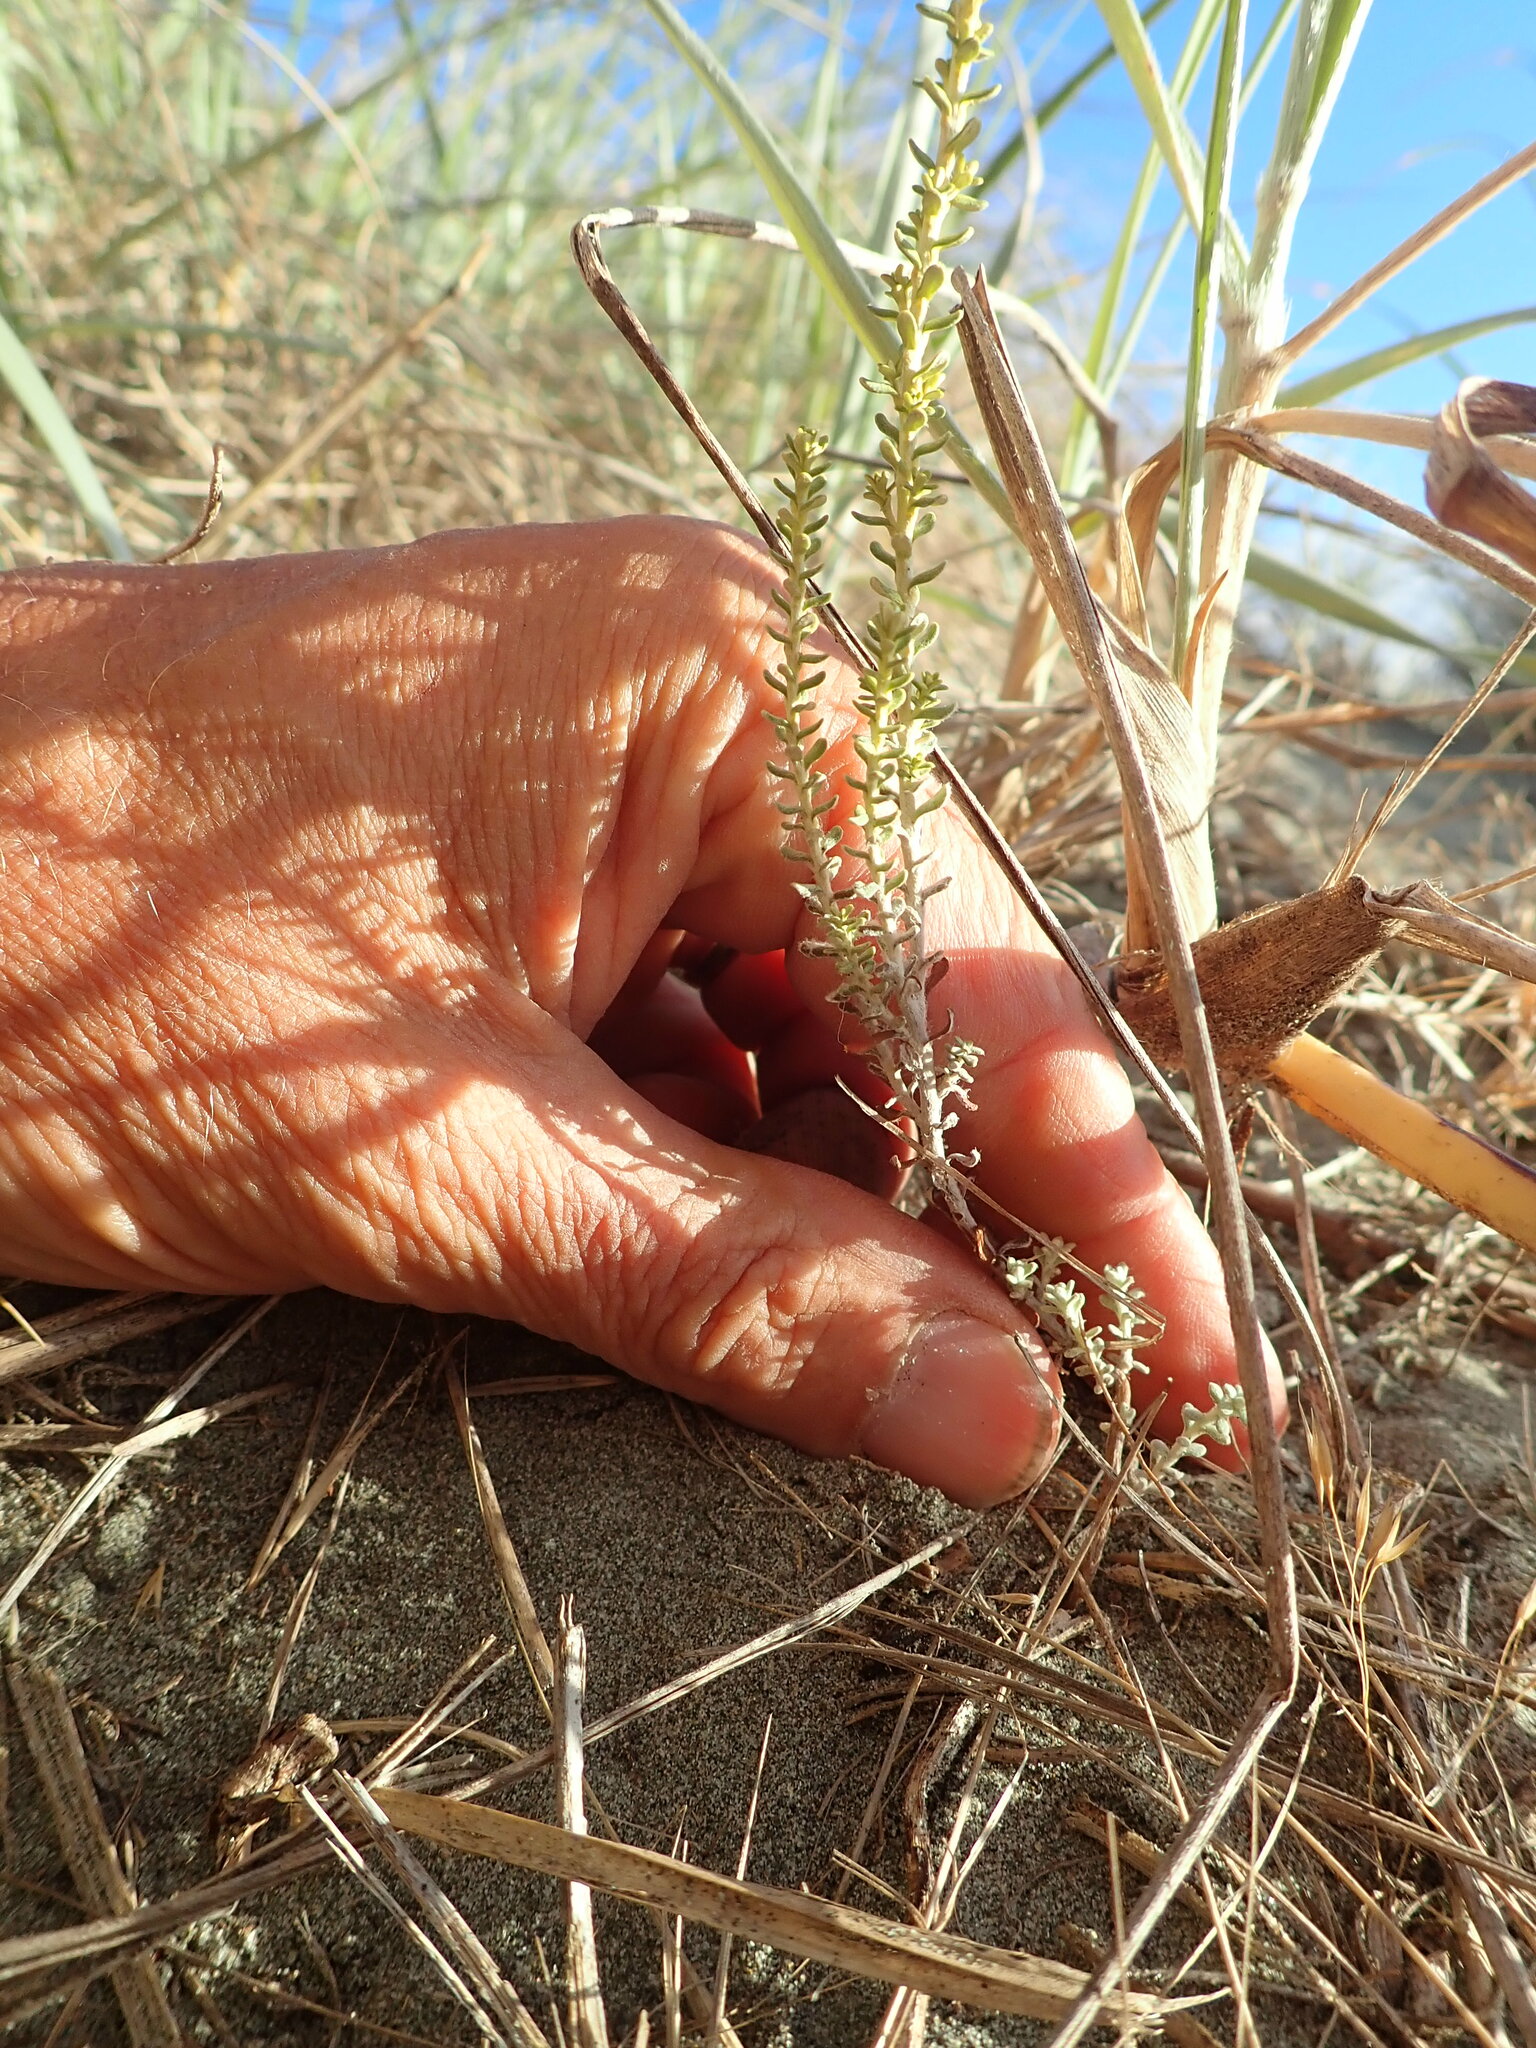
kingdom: Plantae
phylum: Tracheophyta
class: Magnoliopsida
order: Asterales
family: Asteraceae
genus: Ozothamnus
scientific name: Ozothamnus leptophyllus
